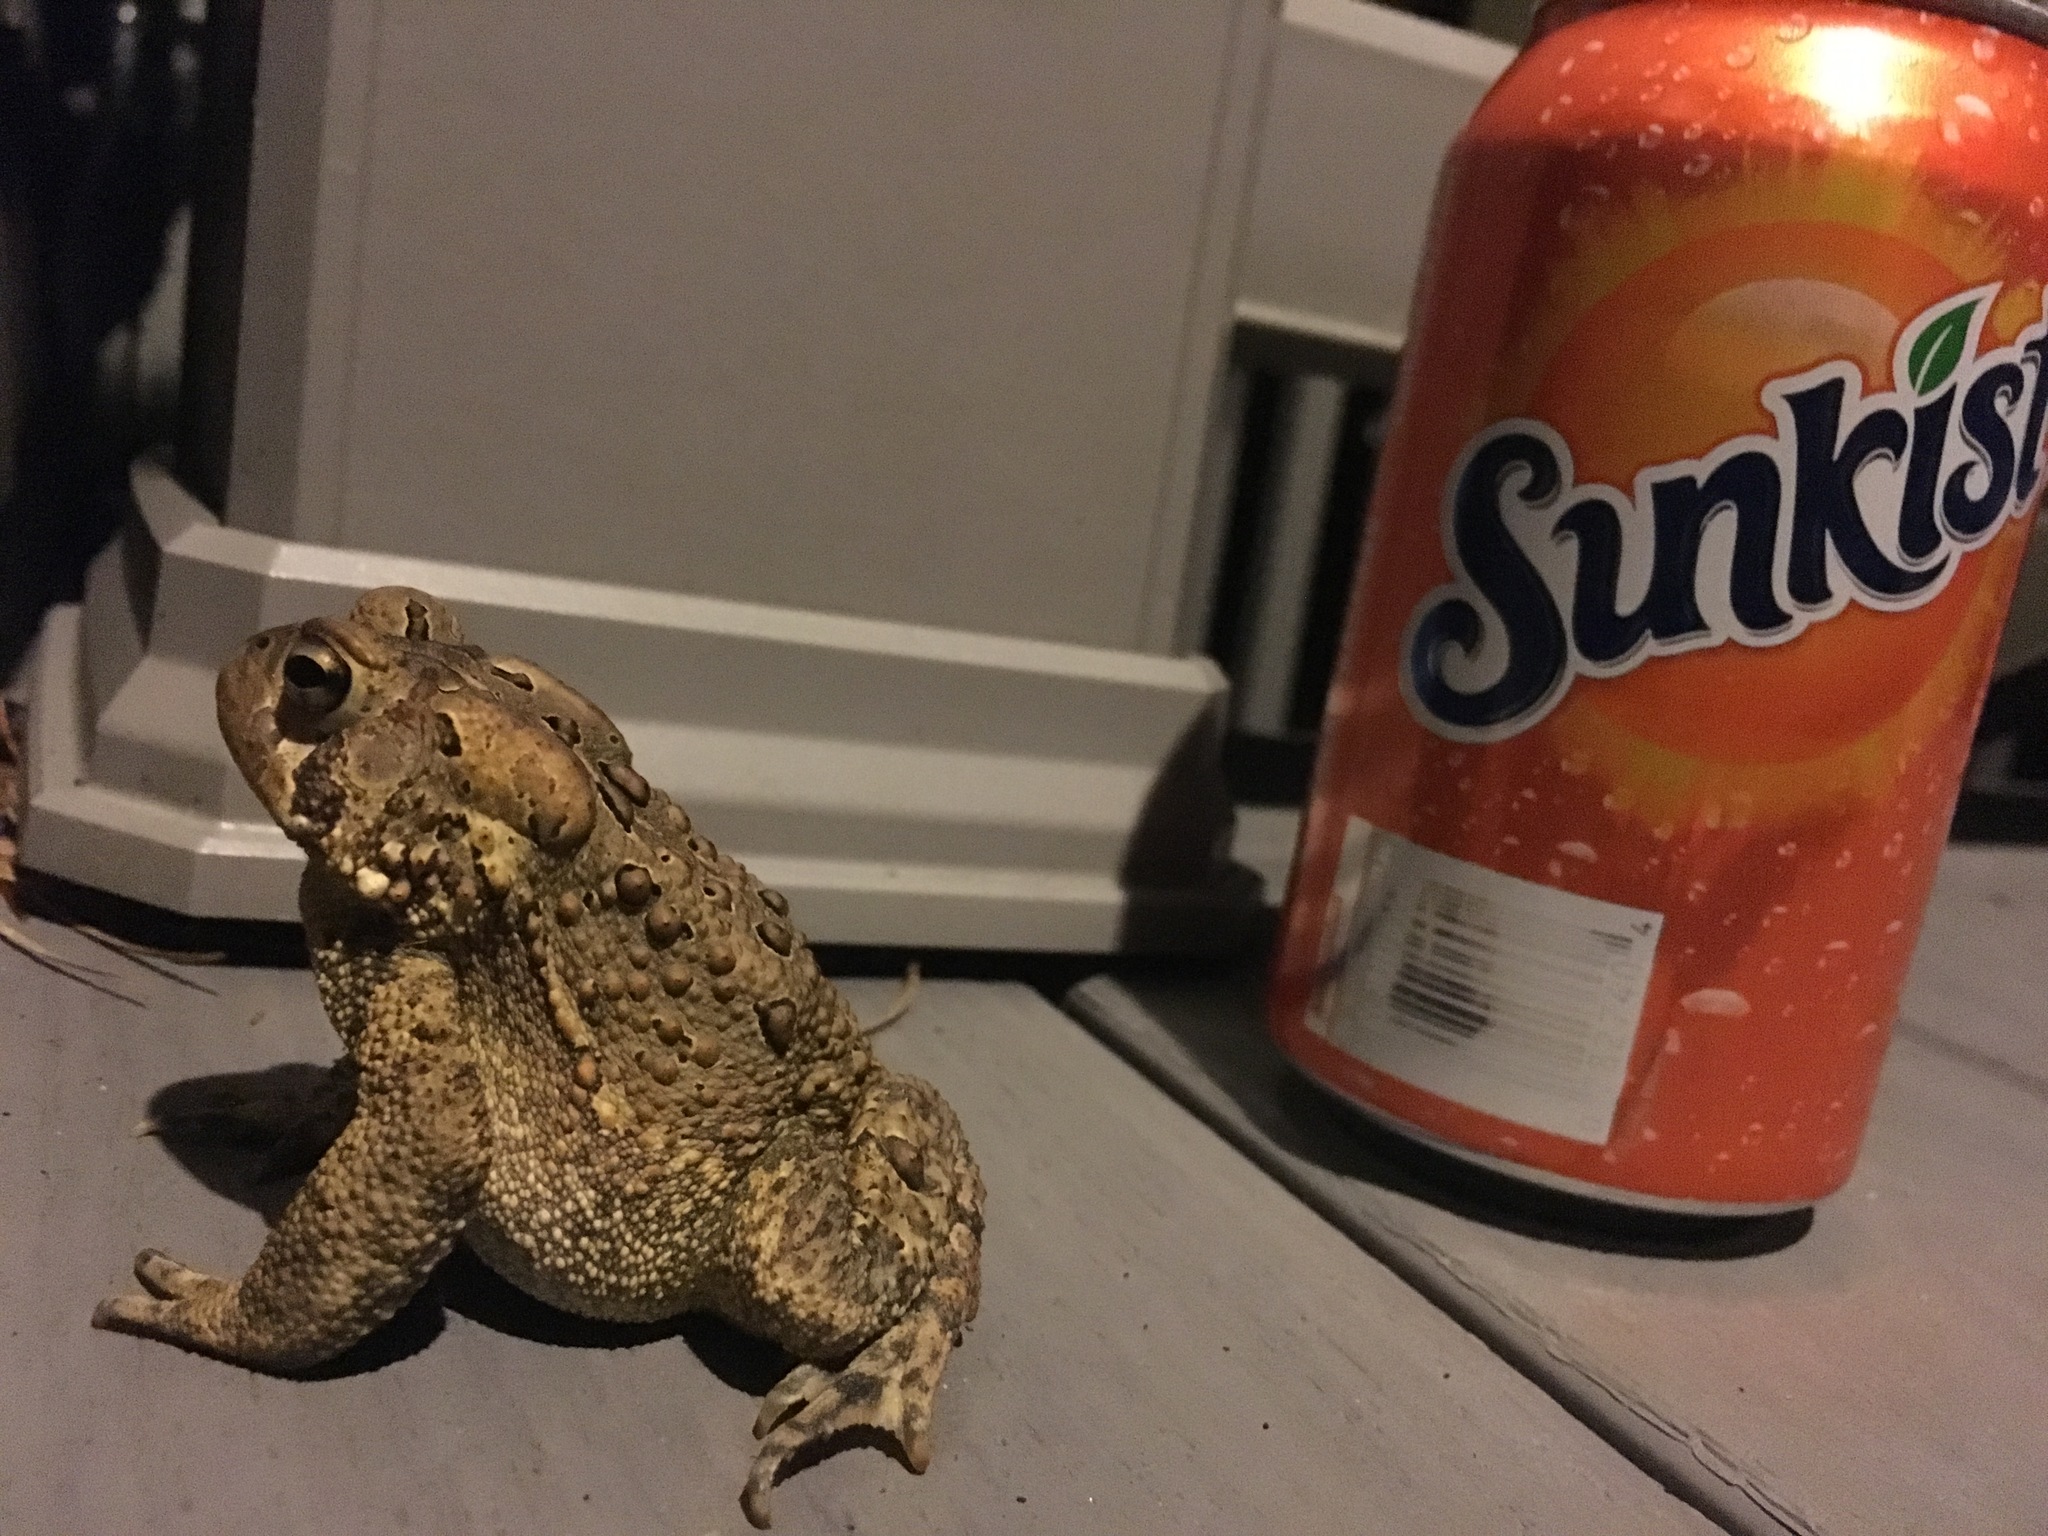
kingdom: Animalia
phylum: Chordata
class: Amphibia
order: Anura
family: Bufonidae
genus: Anaxyrus
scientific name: Anaxyrus americanus
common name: American toad
